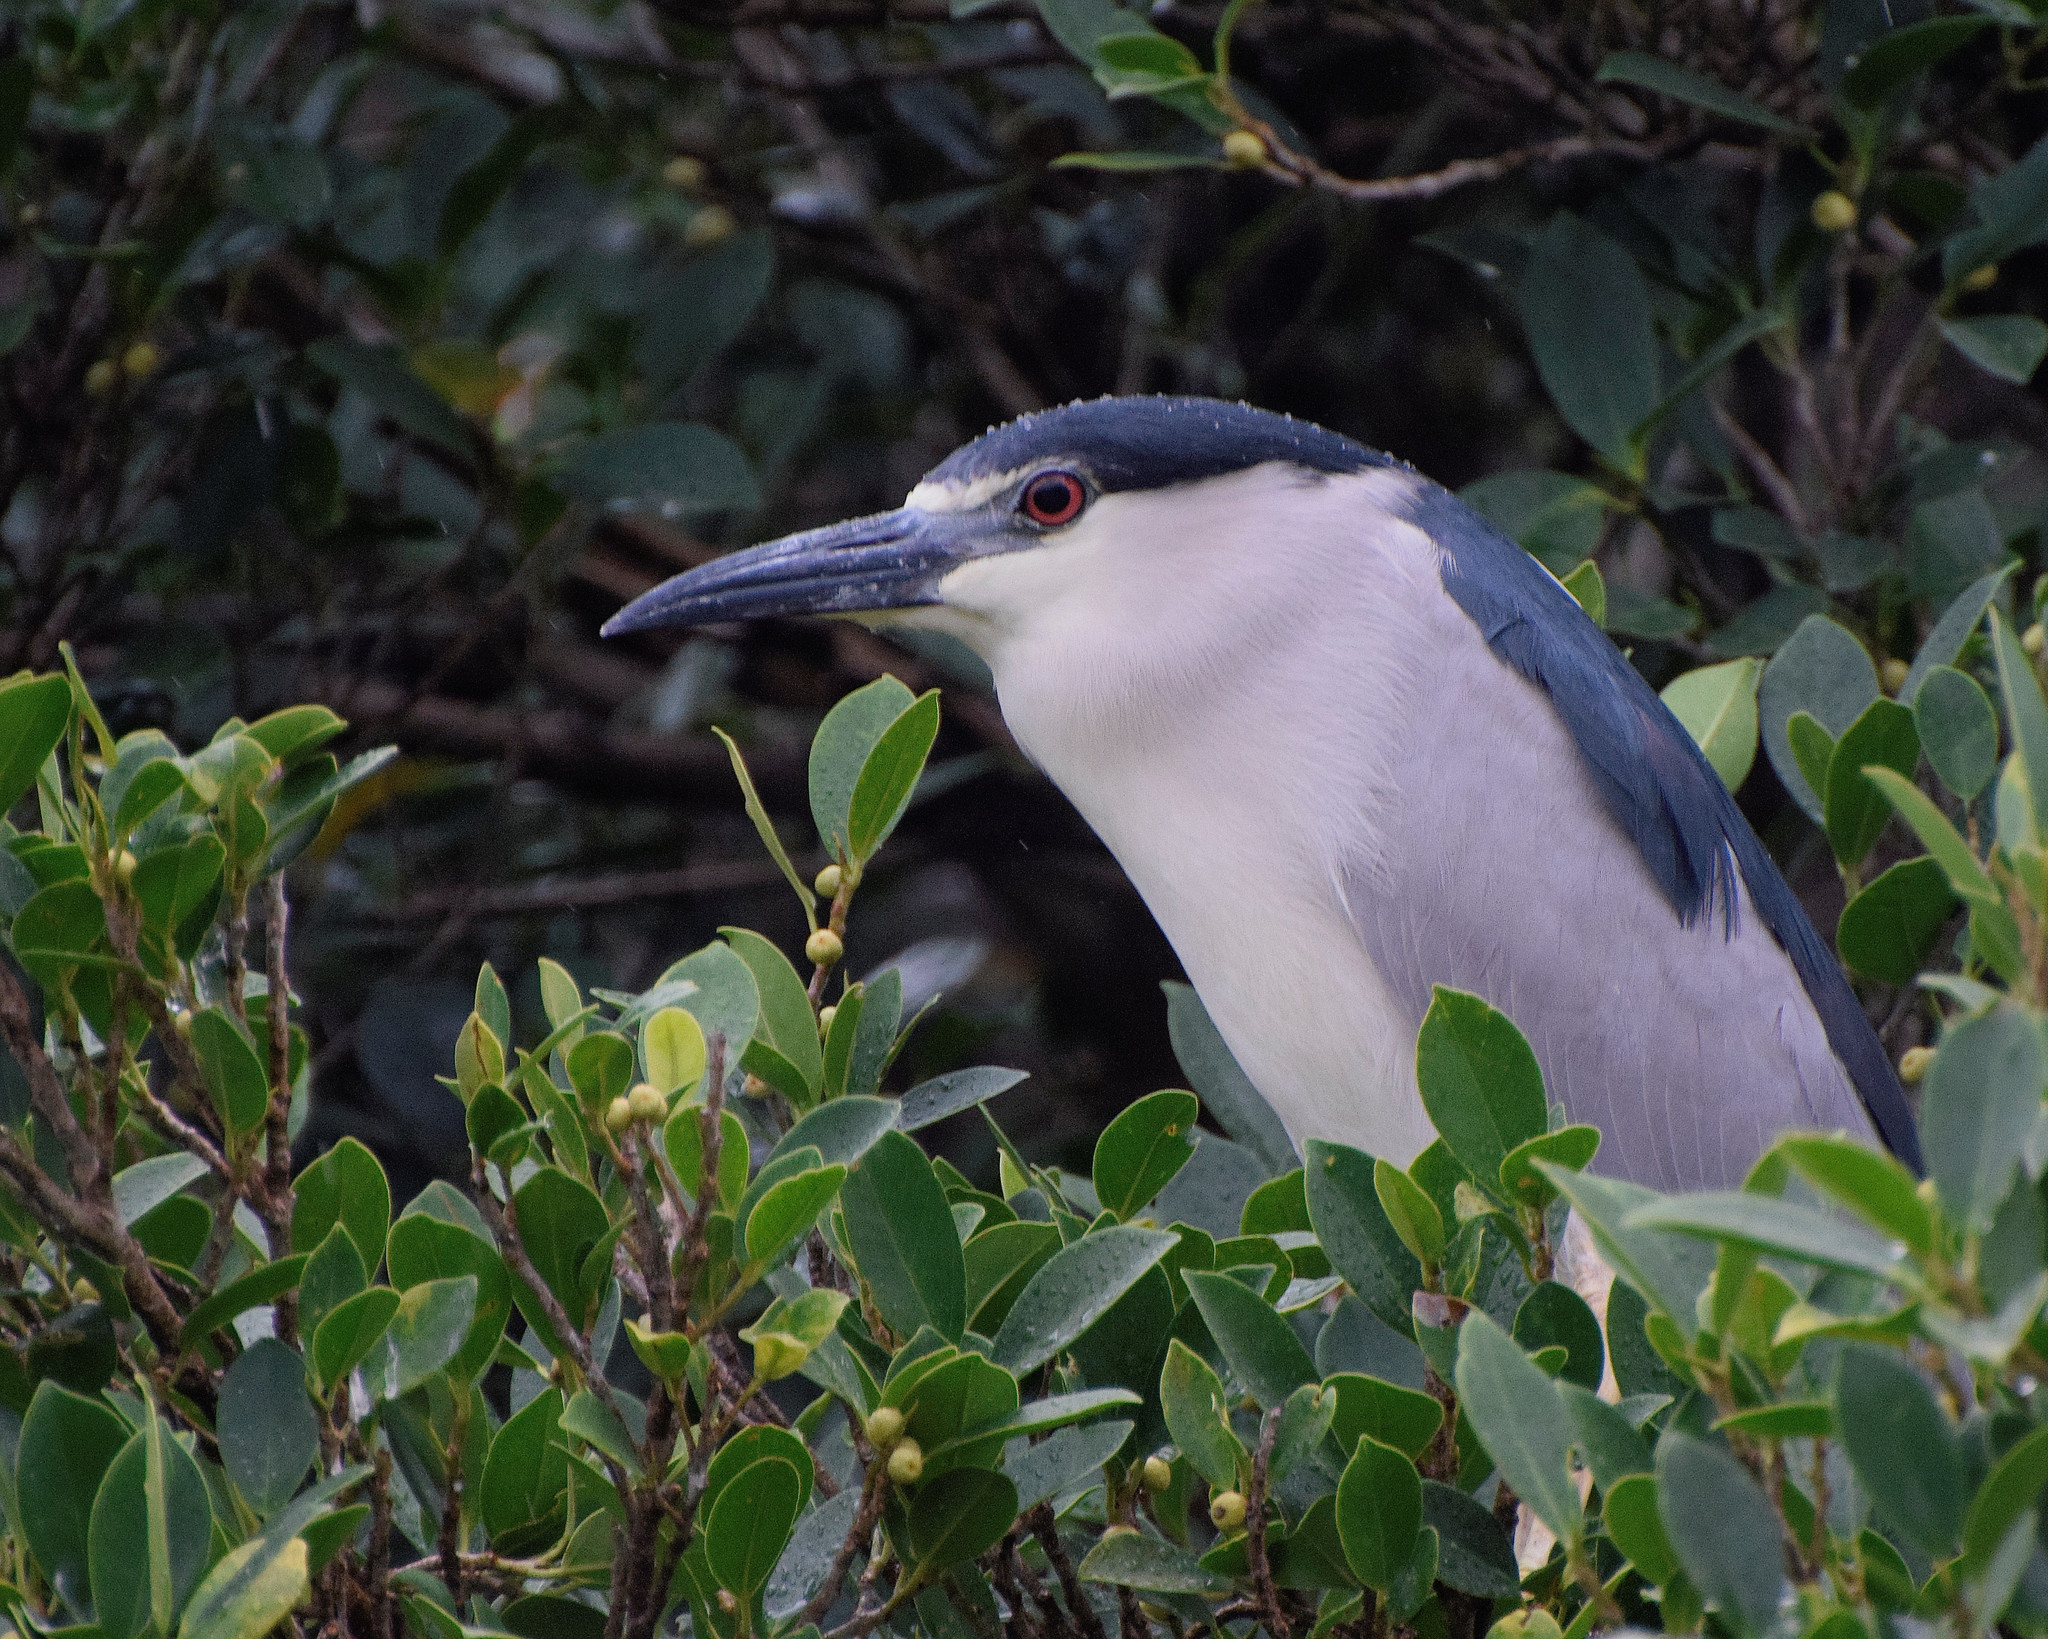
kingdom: Animalia
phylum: Chordata
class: Aves
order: Pelecaniformes
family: Ardeidae
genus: Nycticorax
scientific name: Nycticorax nycticorax
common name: Black-crowned night heron
